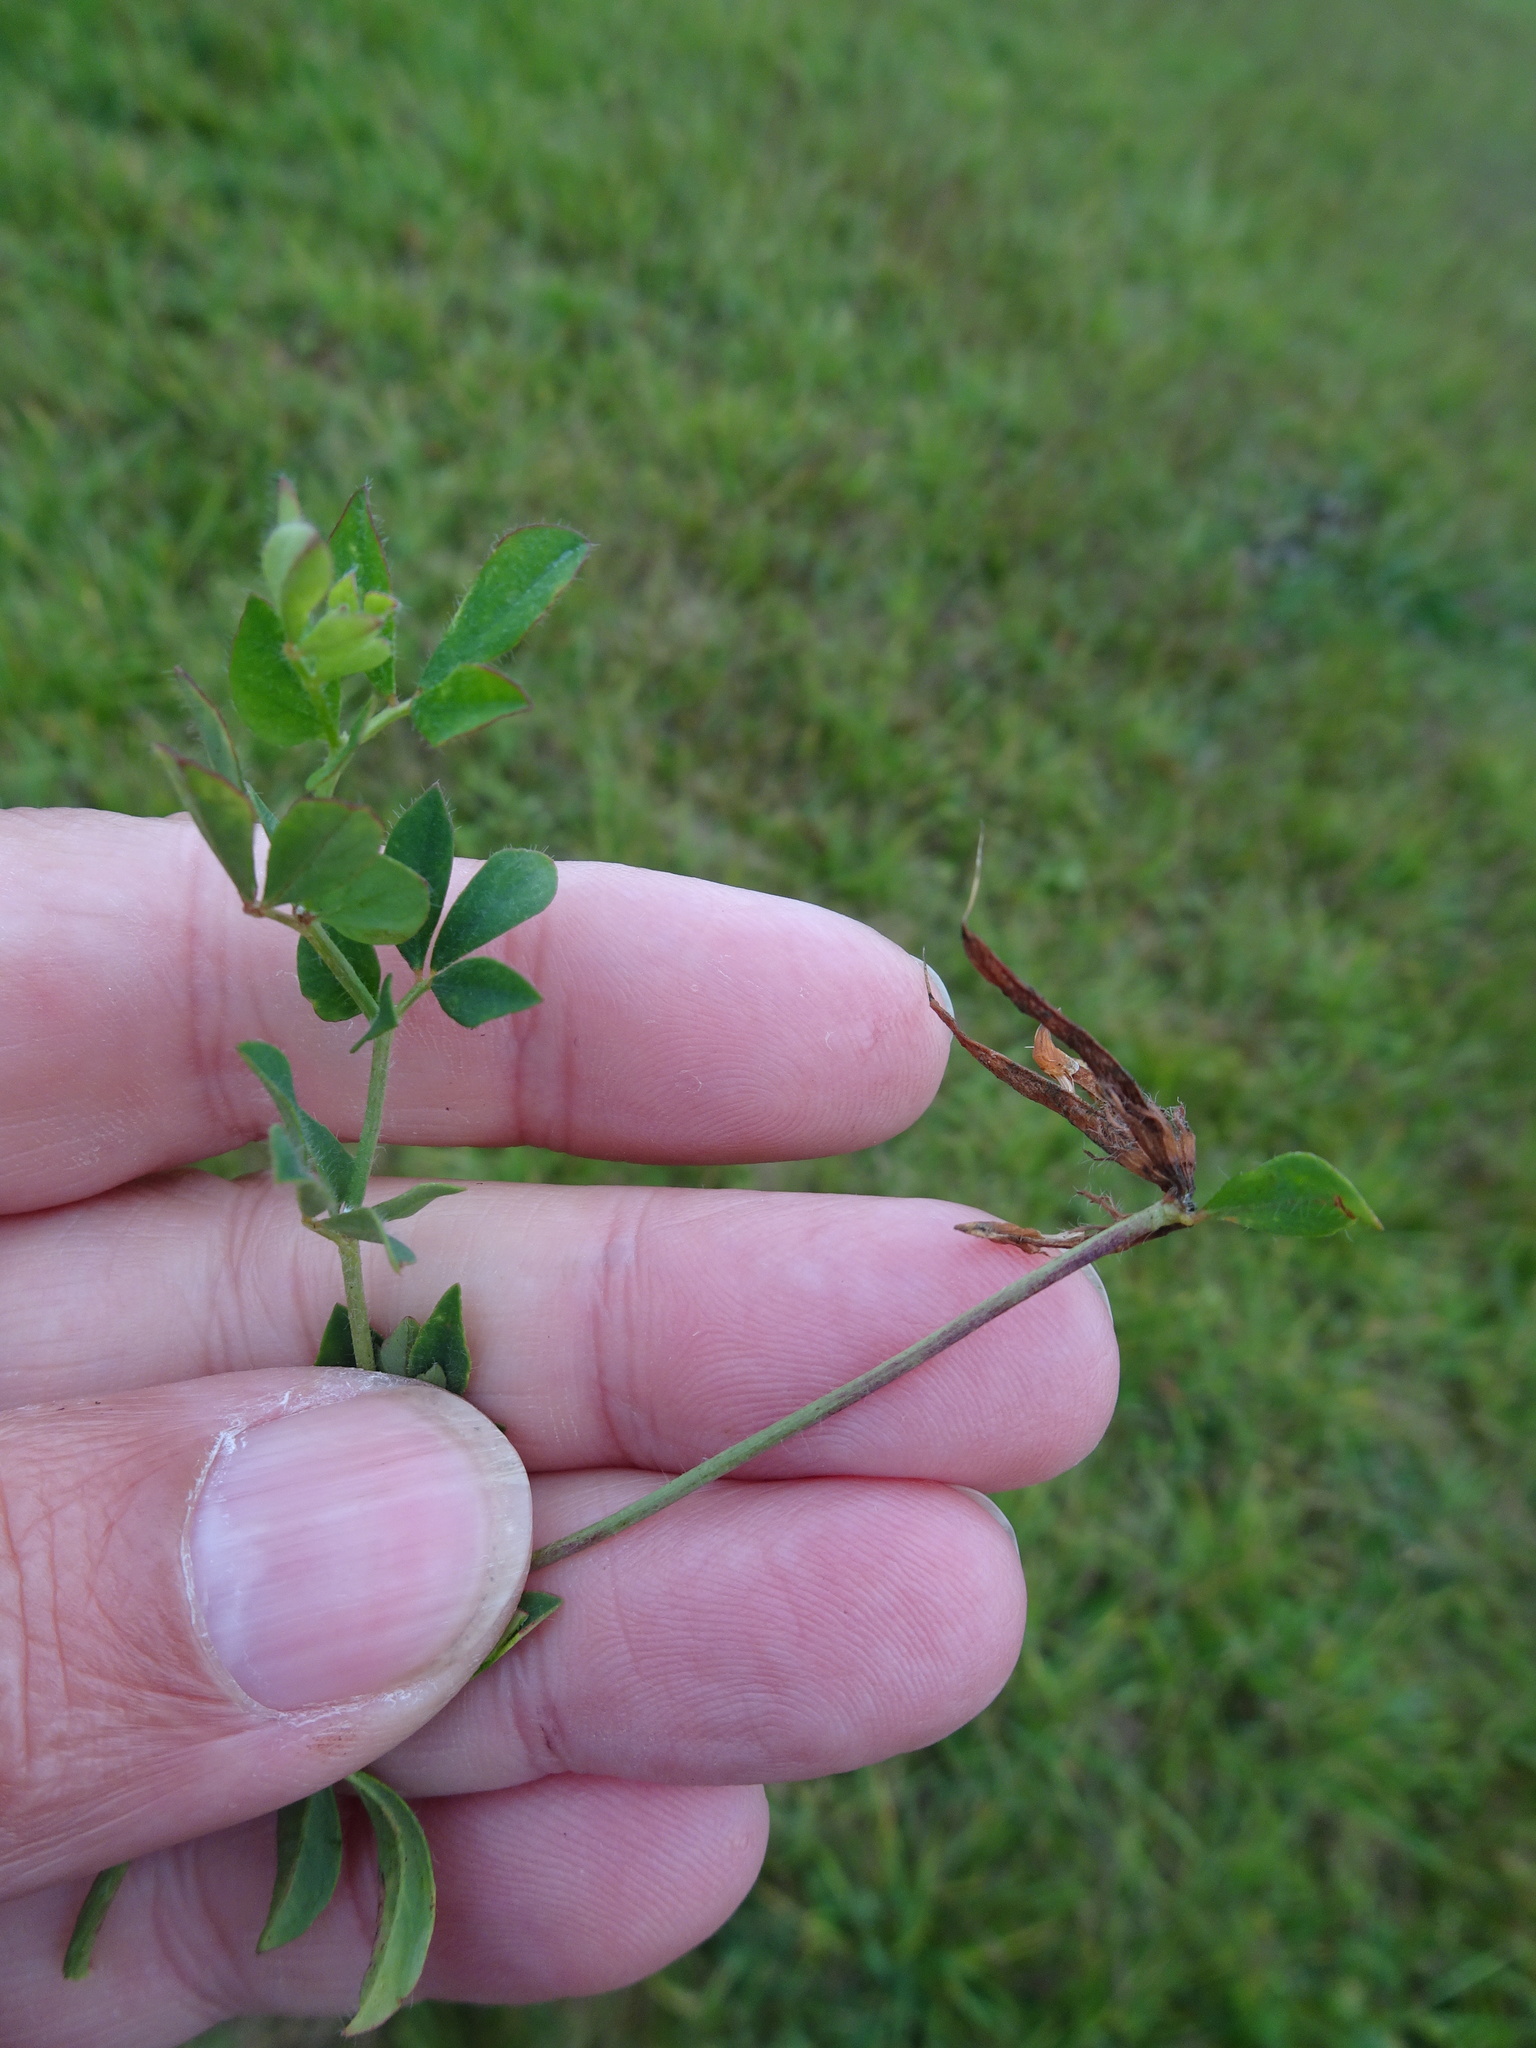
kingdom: Plantae
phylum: Tracheophyta
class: Magnoliopsida
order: Fabales
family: Fabaceae
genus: Lotus
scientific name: Lotus corniculatus
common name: Common bird's-foot-trefoil
